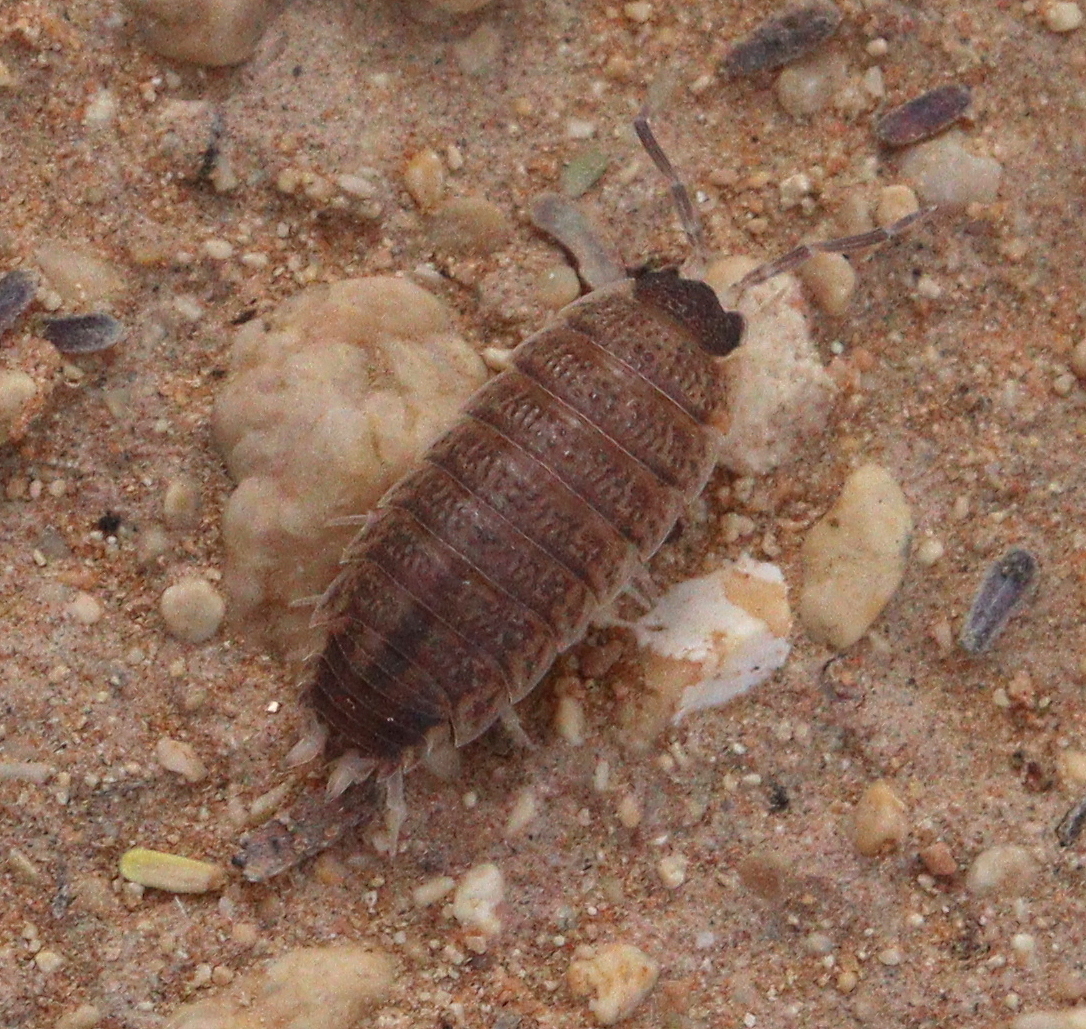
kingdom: Animalia
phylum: Arthropoda
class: Malacostraca
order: Isopoda
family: Porcellionidae
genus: Porcellio
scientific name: Porcellio evansi
